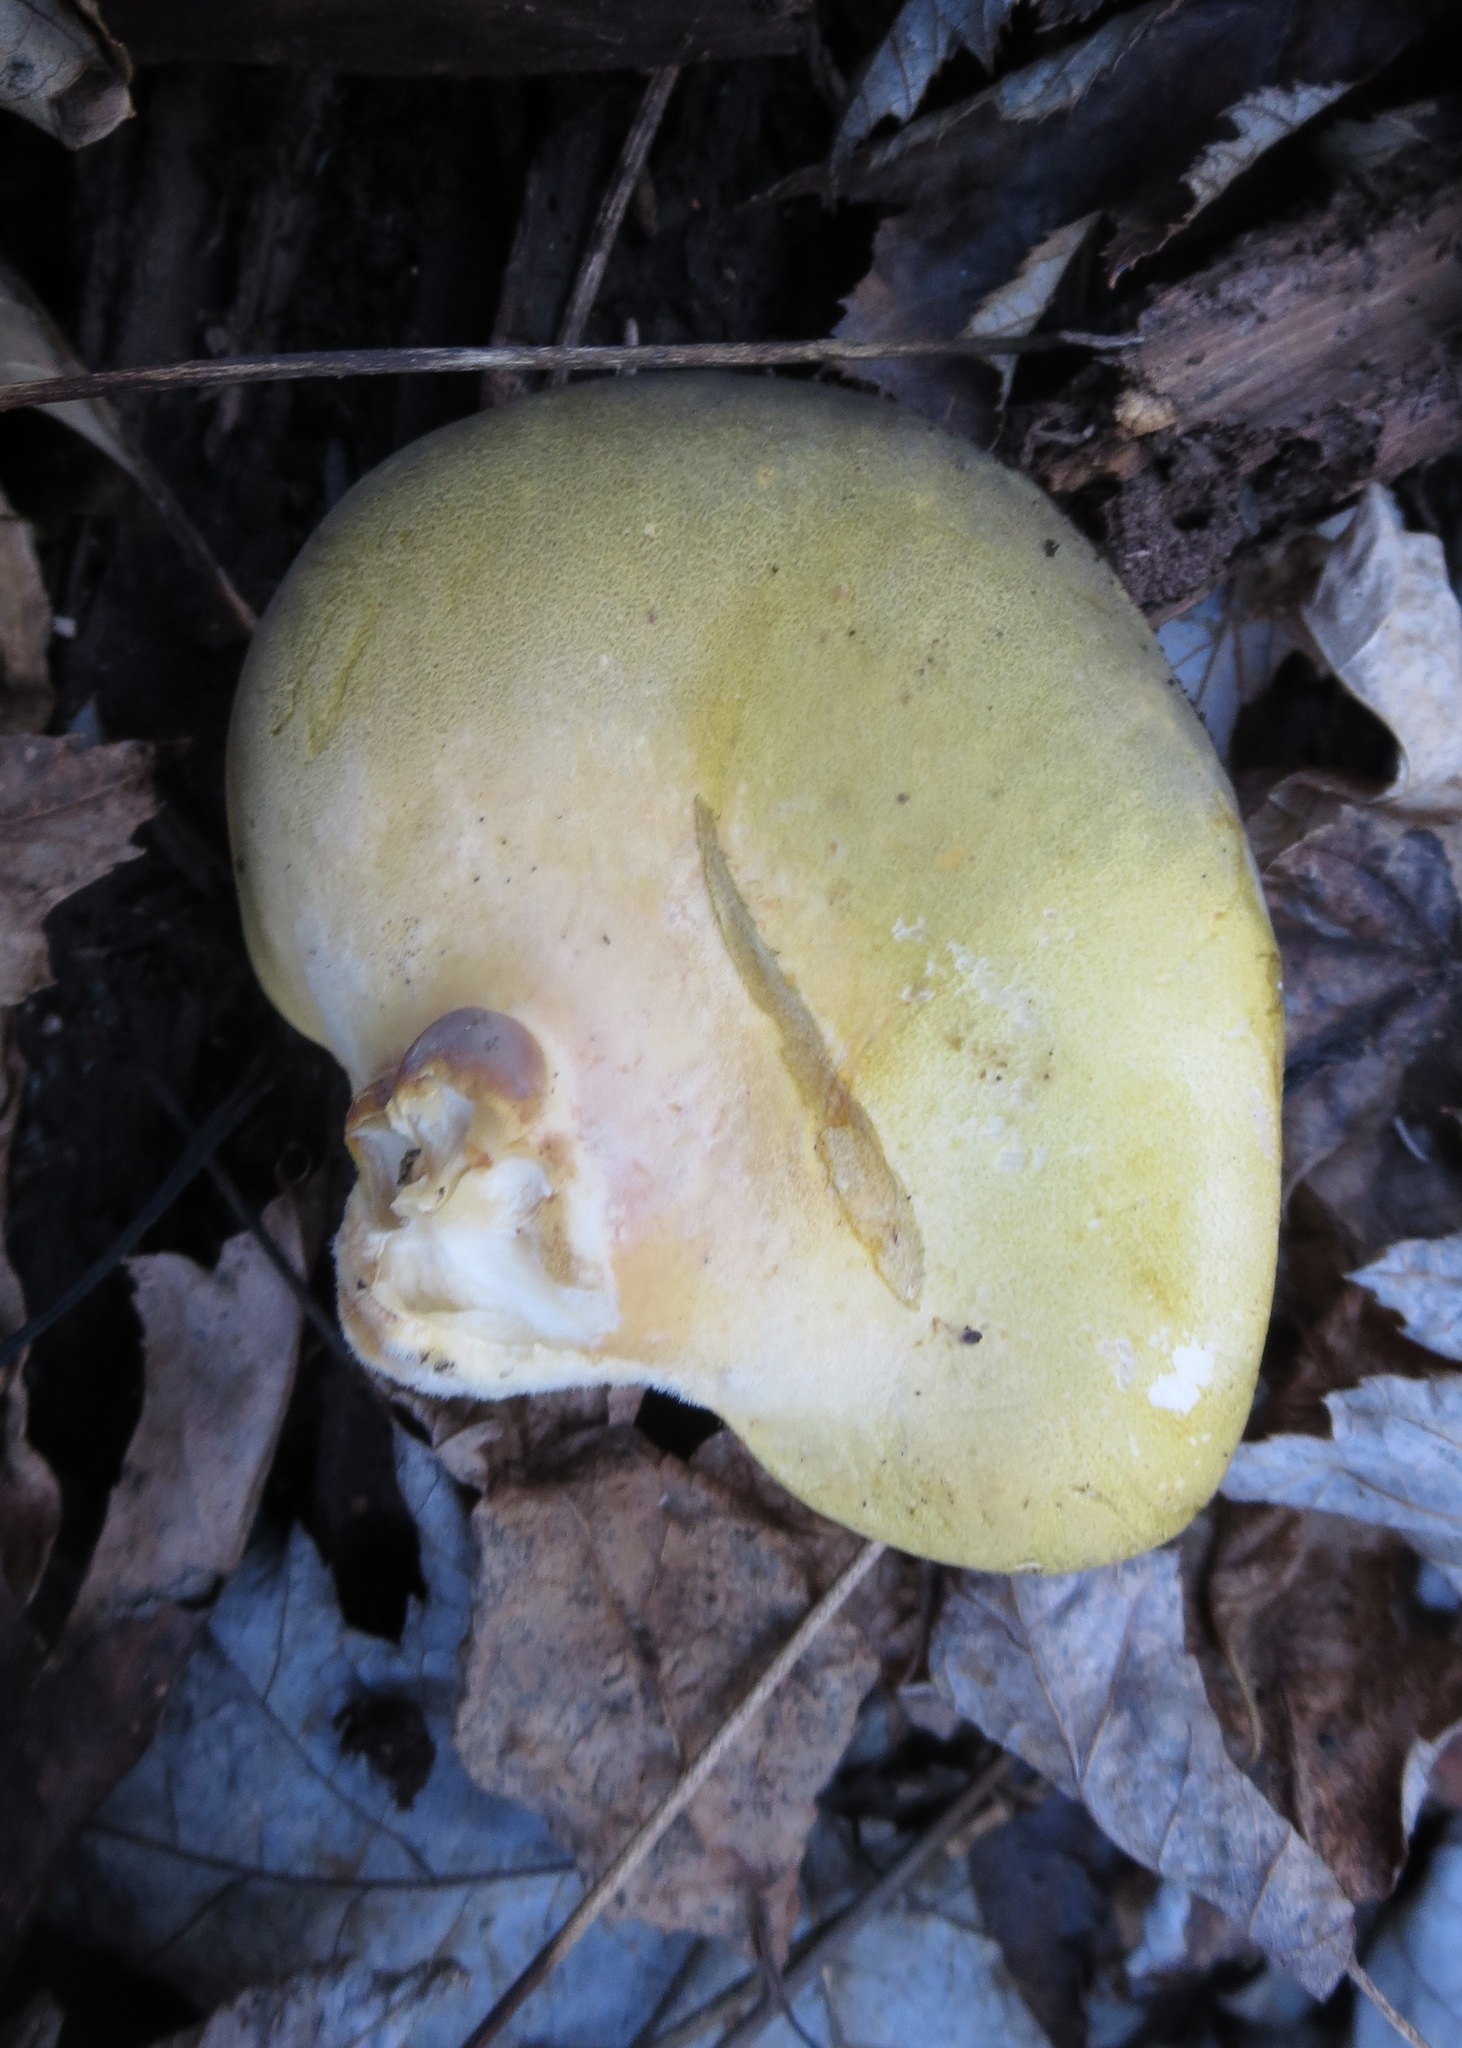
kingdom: Fungi
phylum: Basidiomycota
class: Agaricomycetes
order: Agaricales
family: Sarcomyxaceae
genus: Sarcomyxa
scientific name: Sarcomyxa serotina
